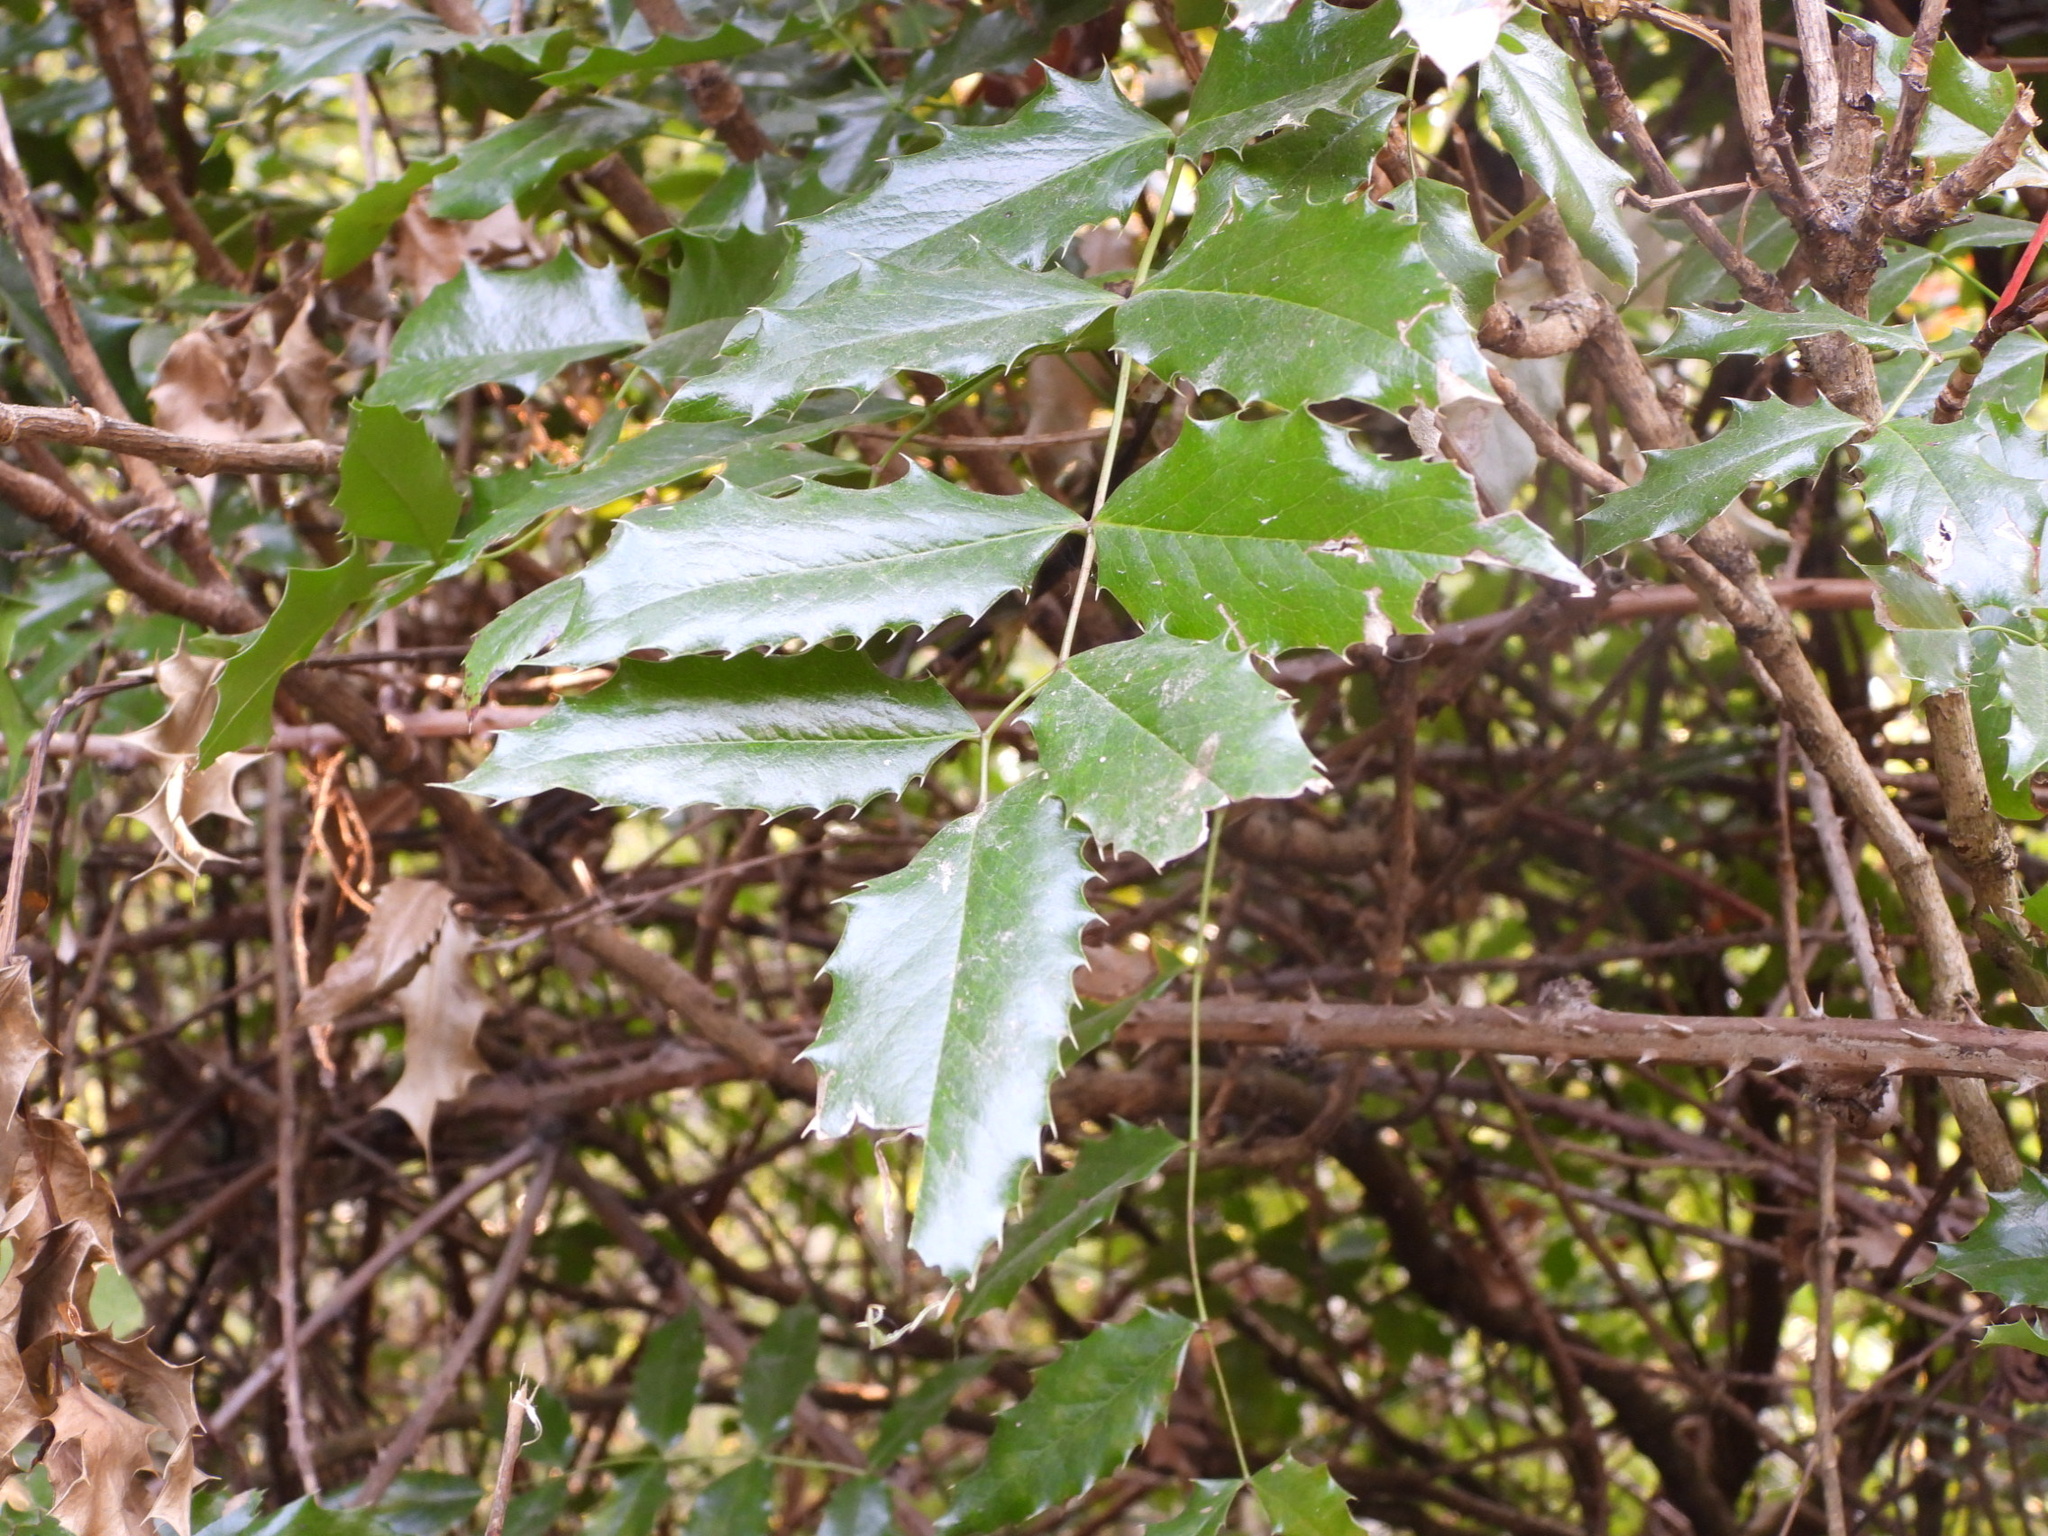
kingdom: Plantae
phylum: Tracheophyta
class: Magnoliopsida
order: Ranunculales
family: Berberidaceae
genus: Mahonia
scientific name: Mahonia aquifolium
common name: Oregon-grape
